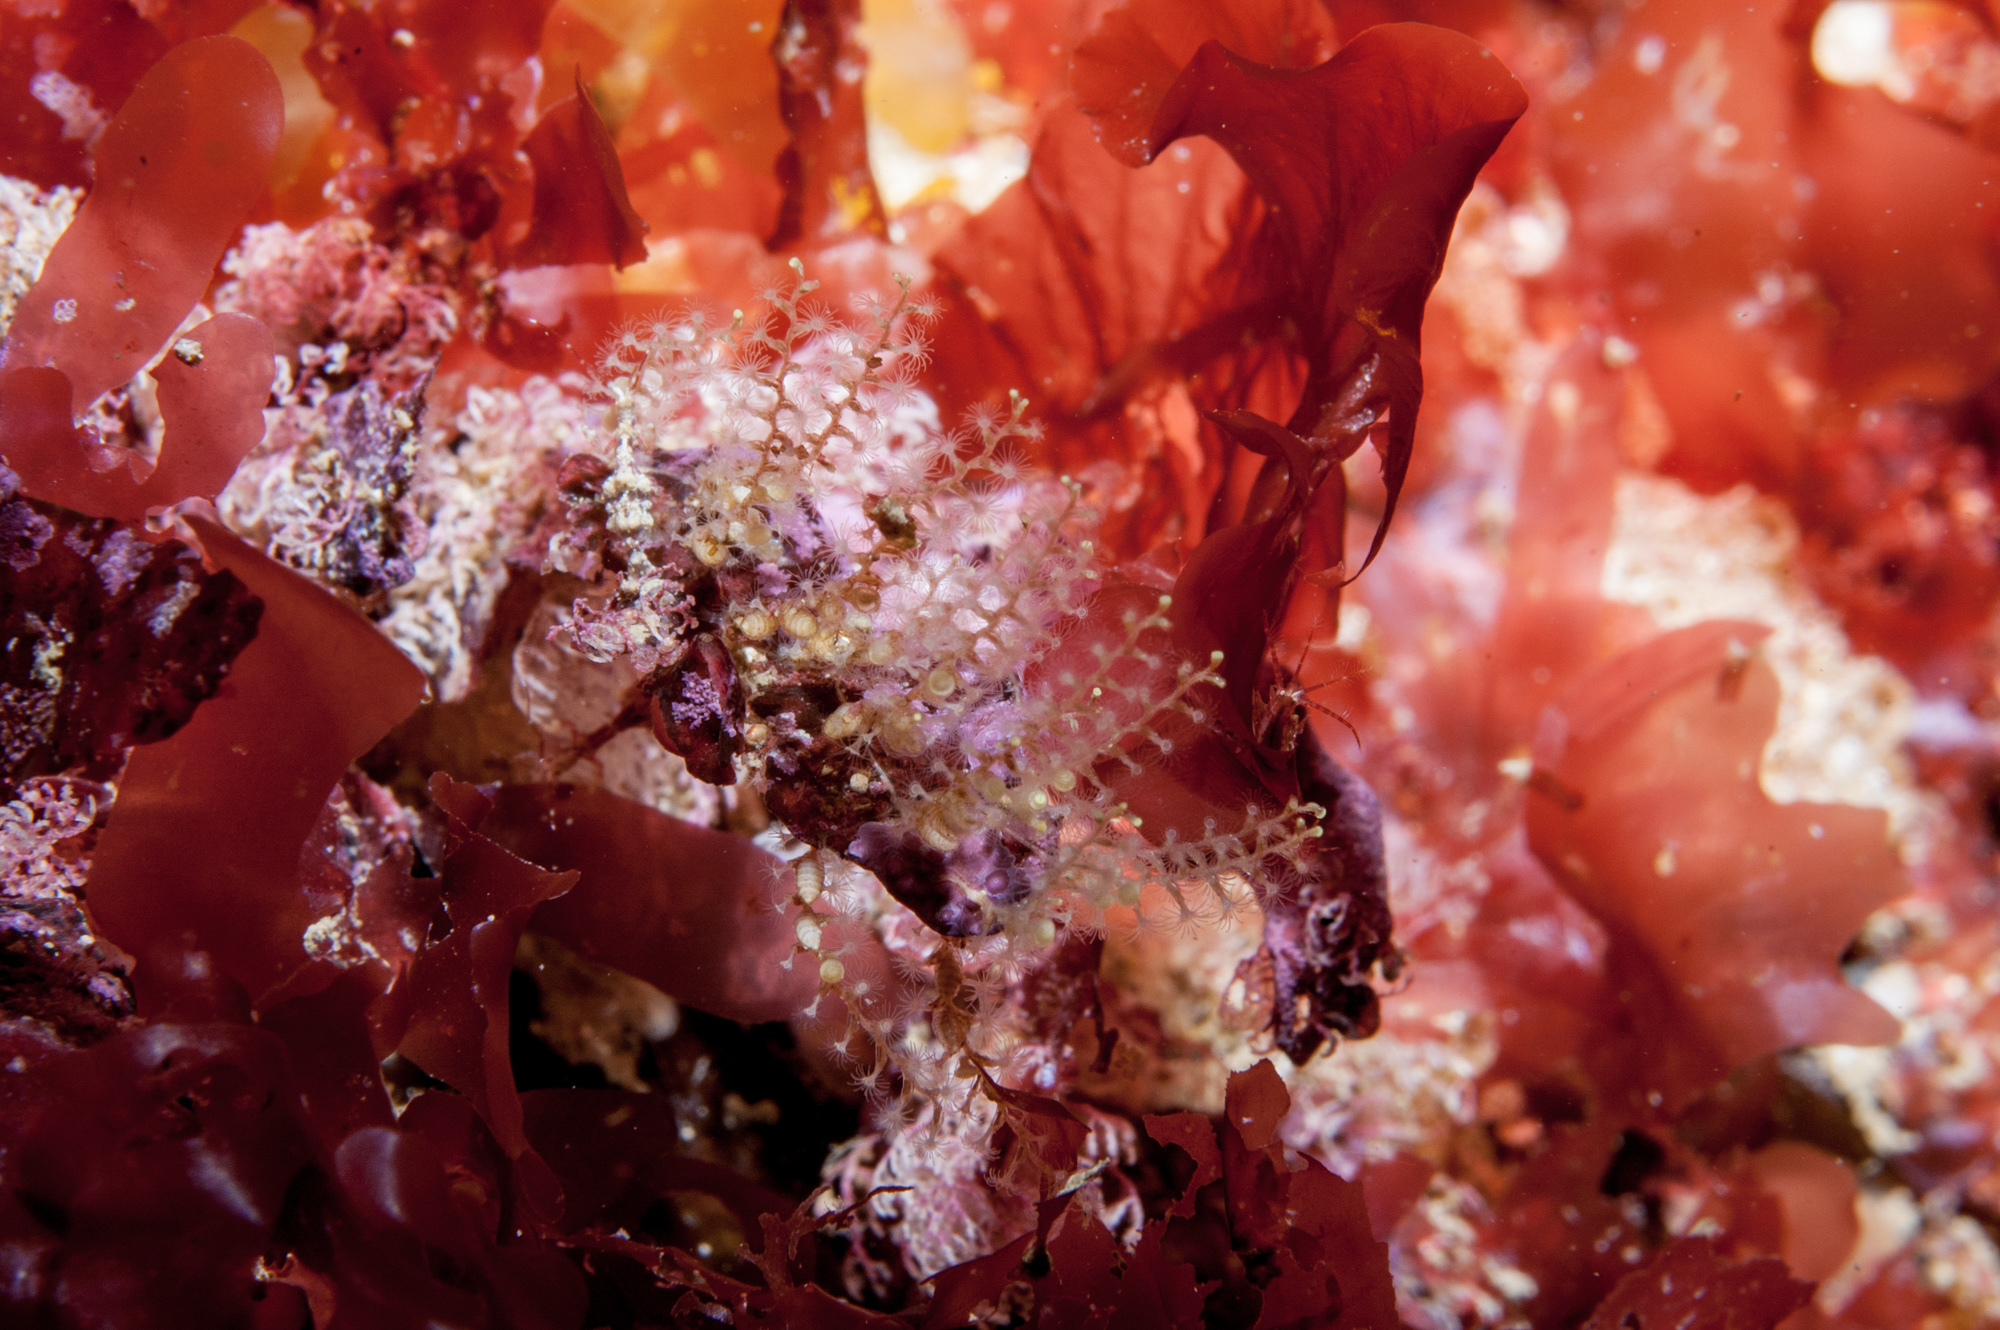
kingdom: Animalia
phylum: Cnidaria
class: Hydrozoa
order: Leptothecata
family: Sertularellidae
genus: Sertularella
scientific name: Sertularella tenella
